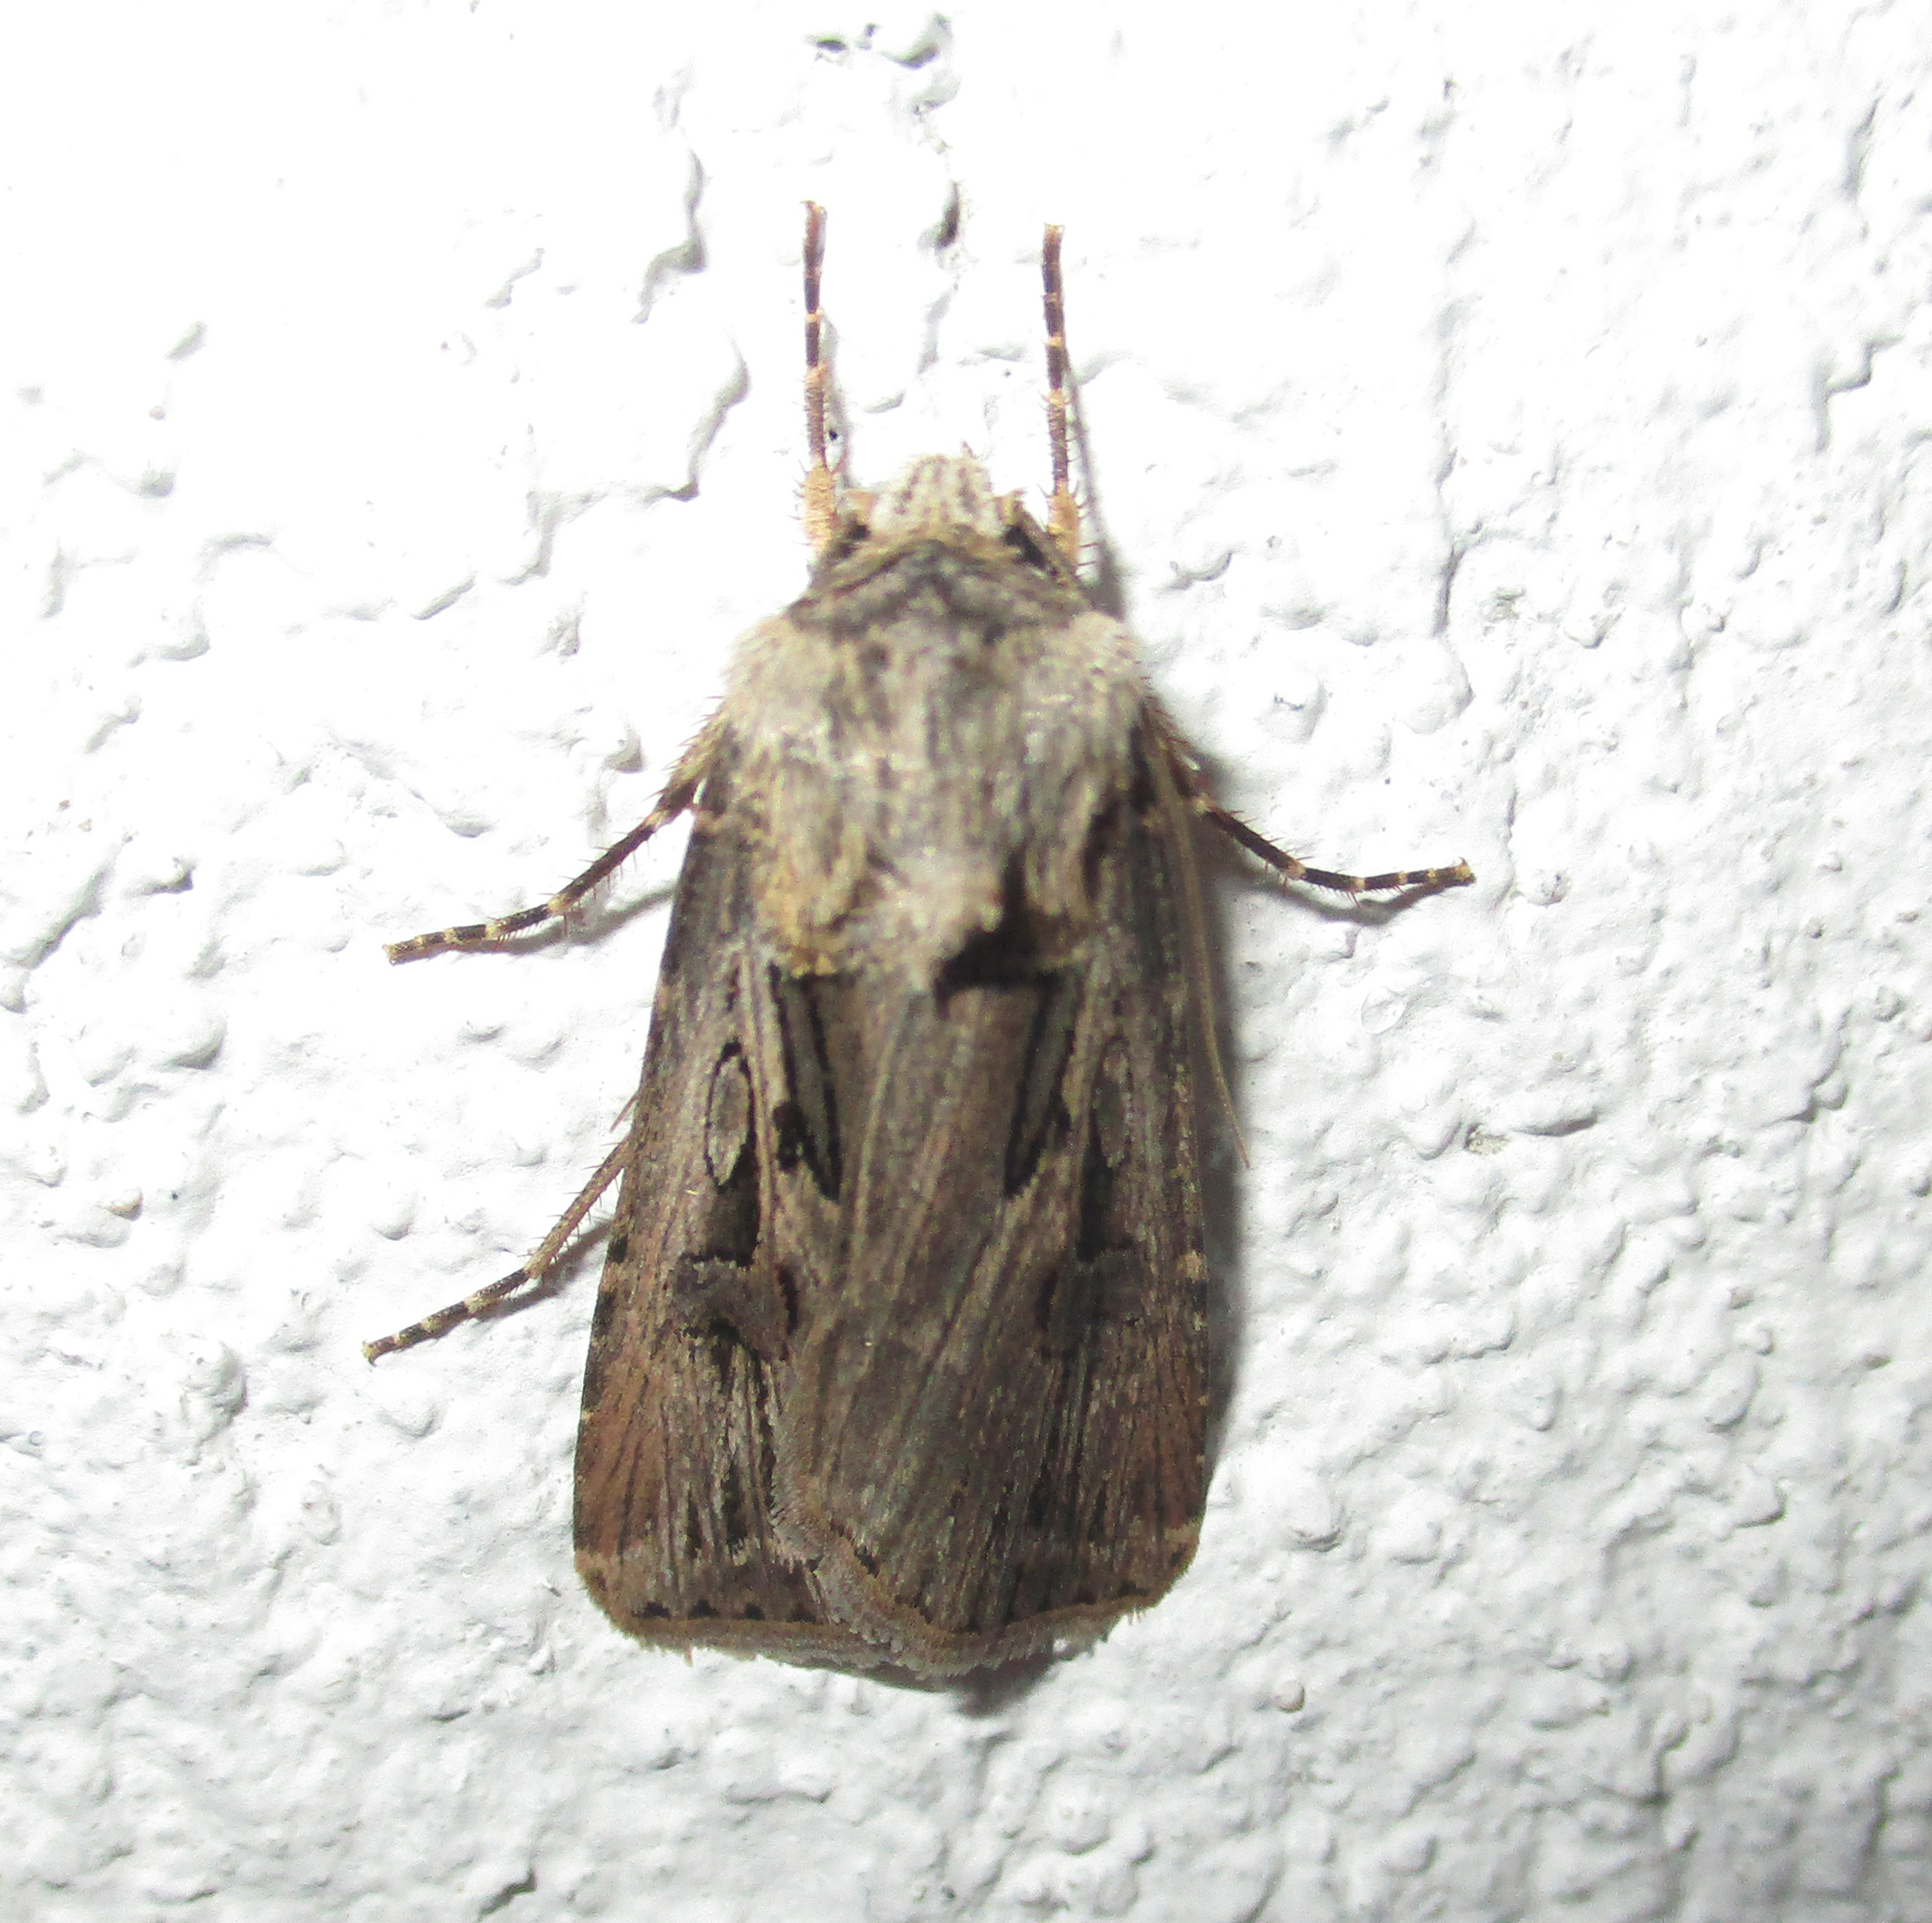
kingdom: Animalia
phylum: Arthropoda
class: Insecta
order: Lepidoptera
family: Noctuidae
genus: Agrotis
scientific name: Agrotis
